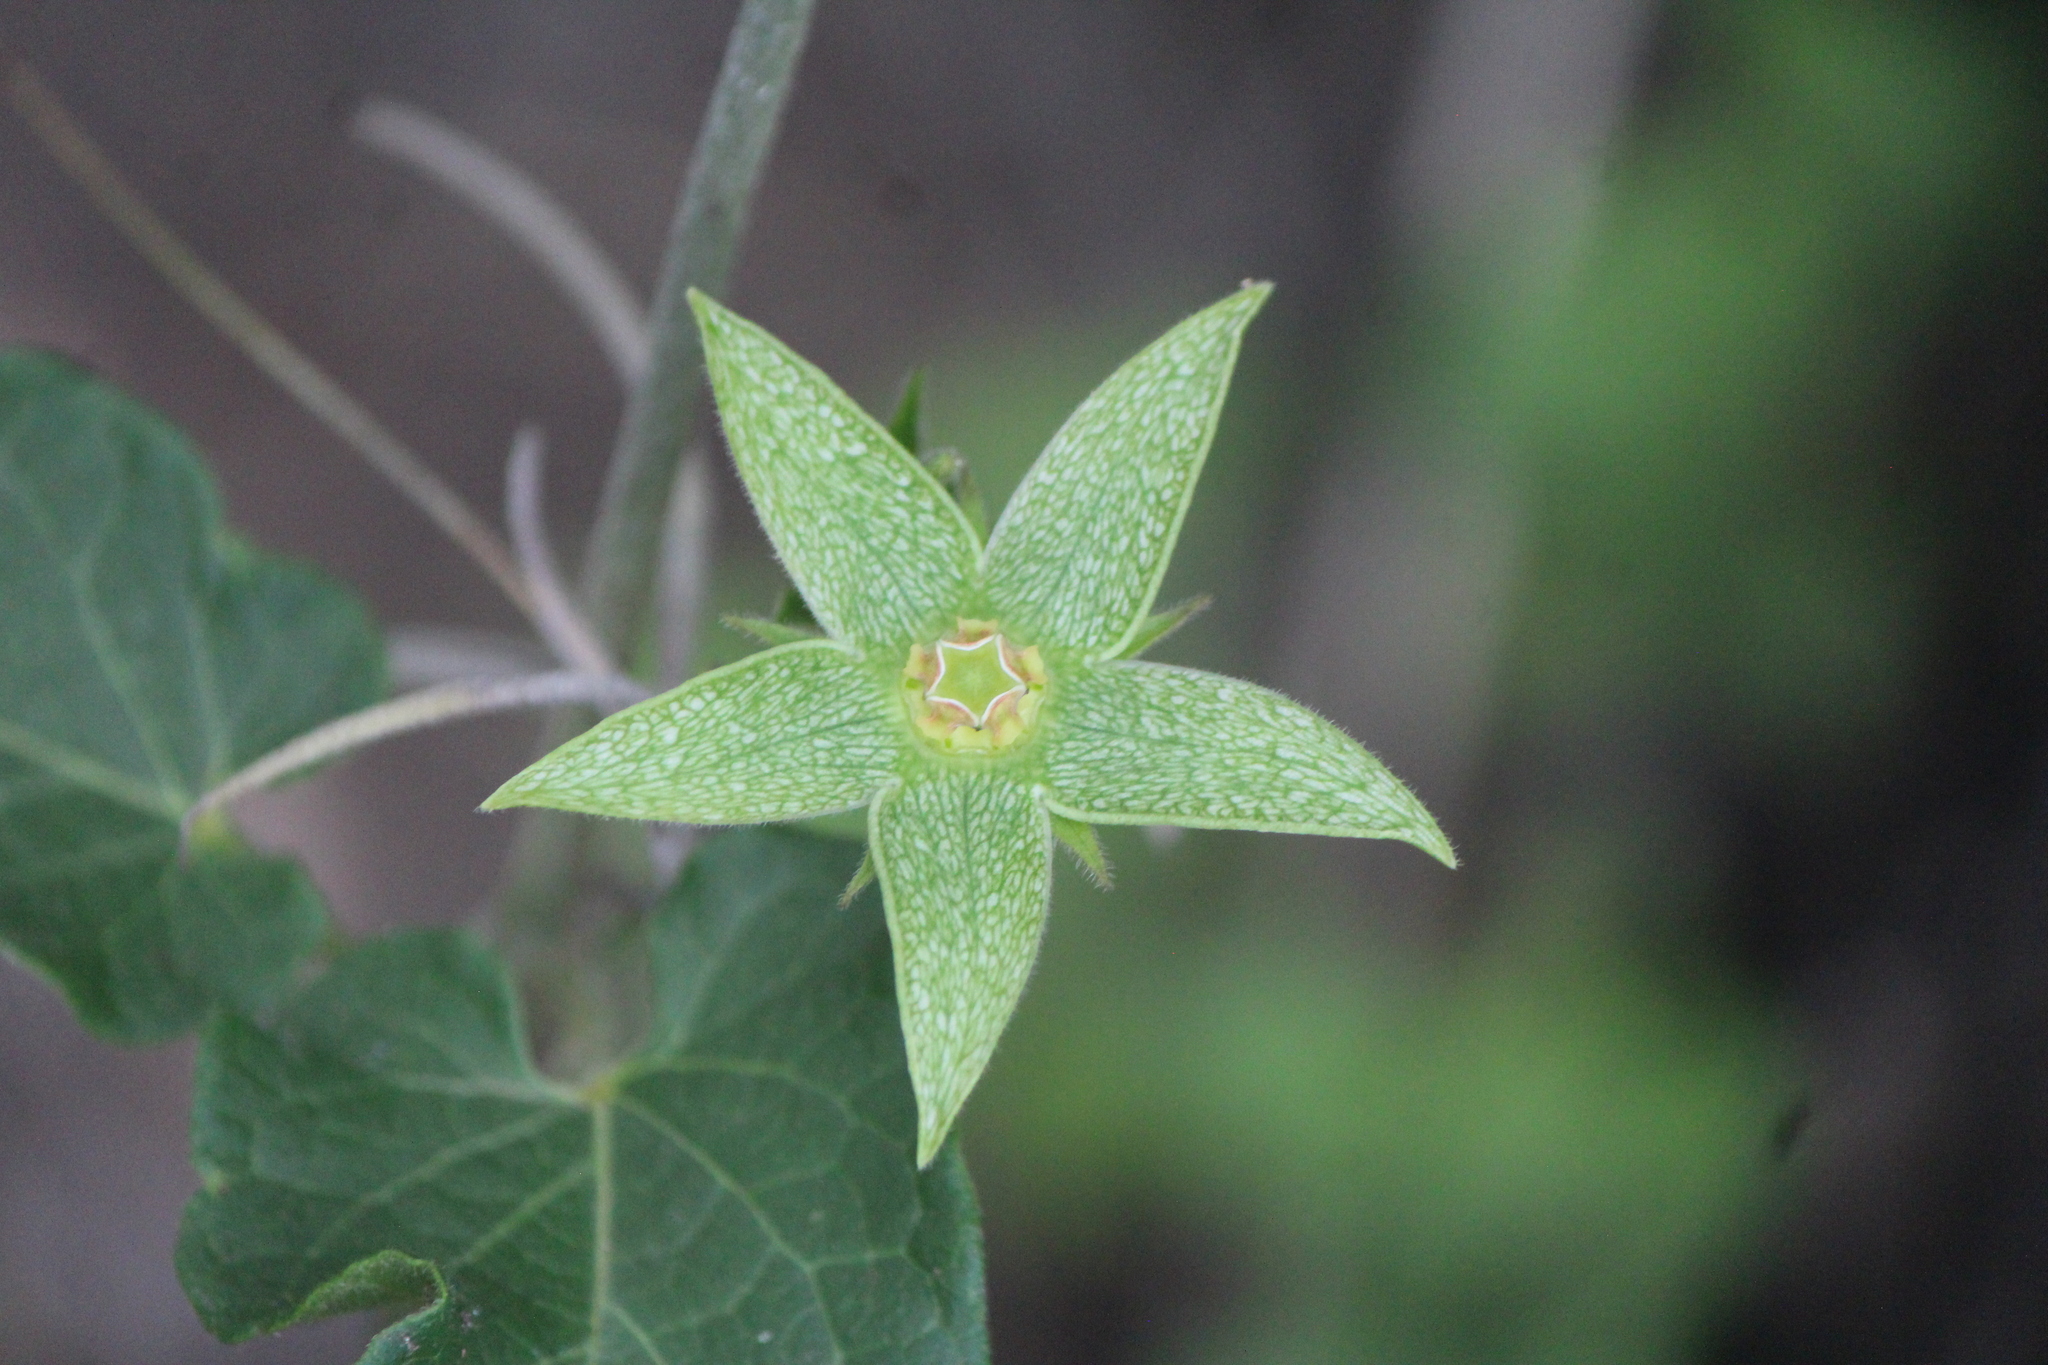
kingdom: Plantae
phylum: Tracheophyta
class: Magnoliopsida
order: Gentianales
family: Apocynaceae
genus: Gonolobus
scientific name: Gonolobus grandiflorus
